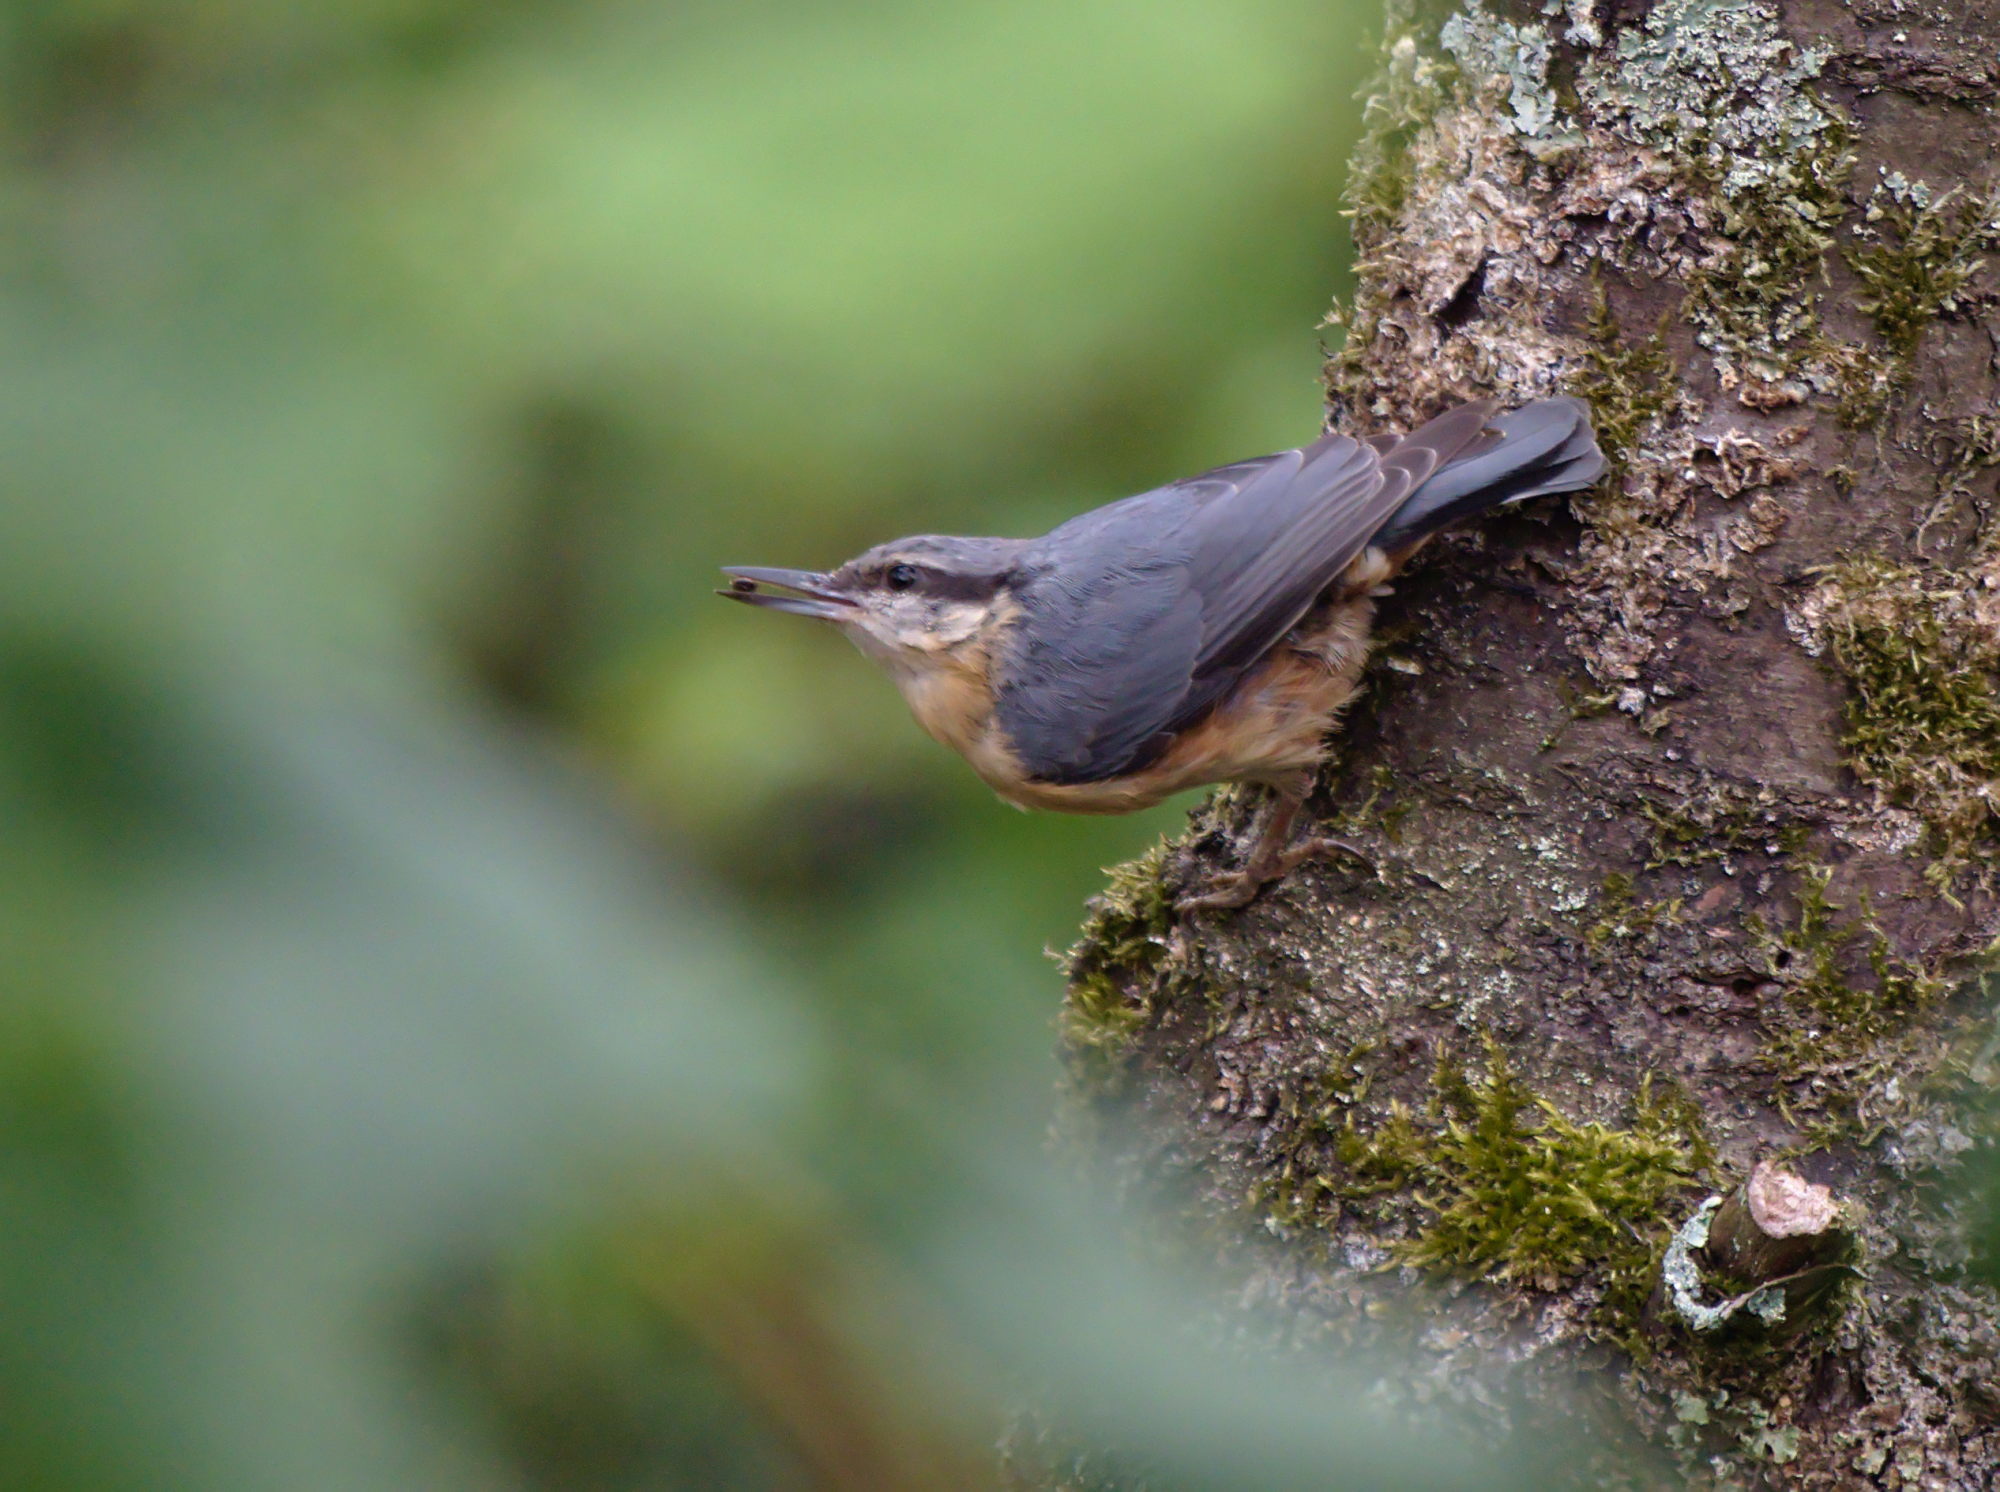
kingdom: Animalia
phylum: Chordata
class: Aves
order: Passeriformes
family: Sittidae
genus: Sitta
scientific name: Sitta europaea
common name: Eurasian nuthatch
